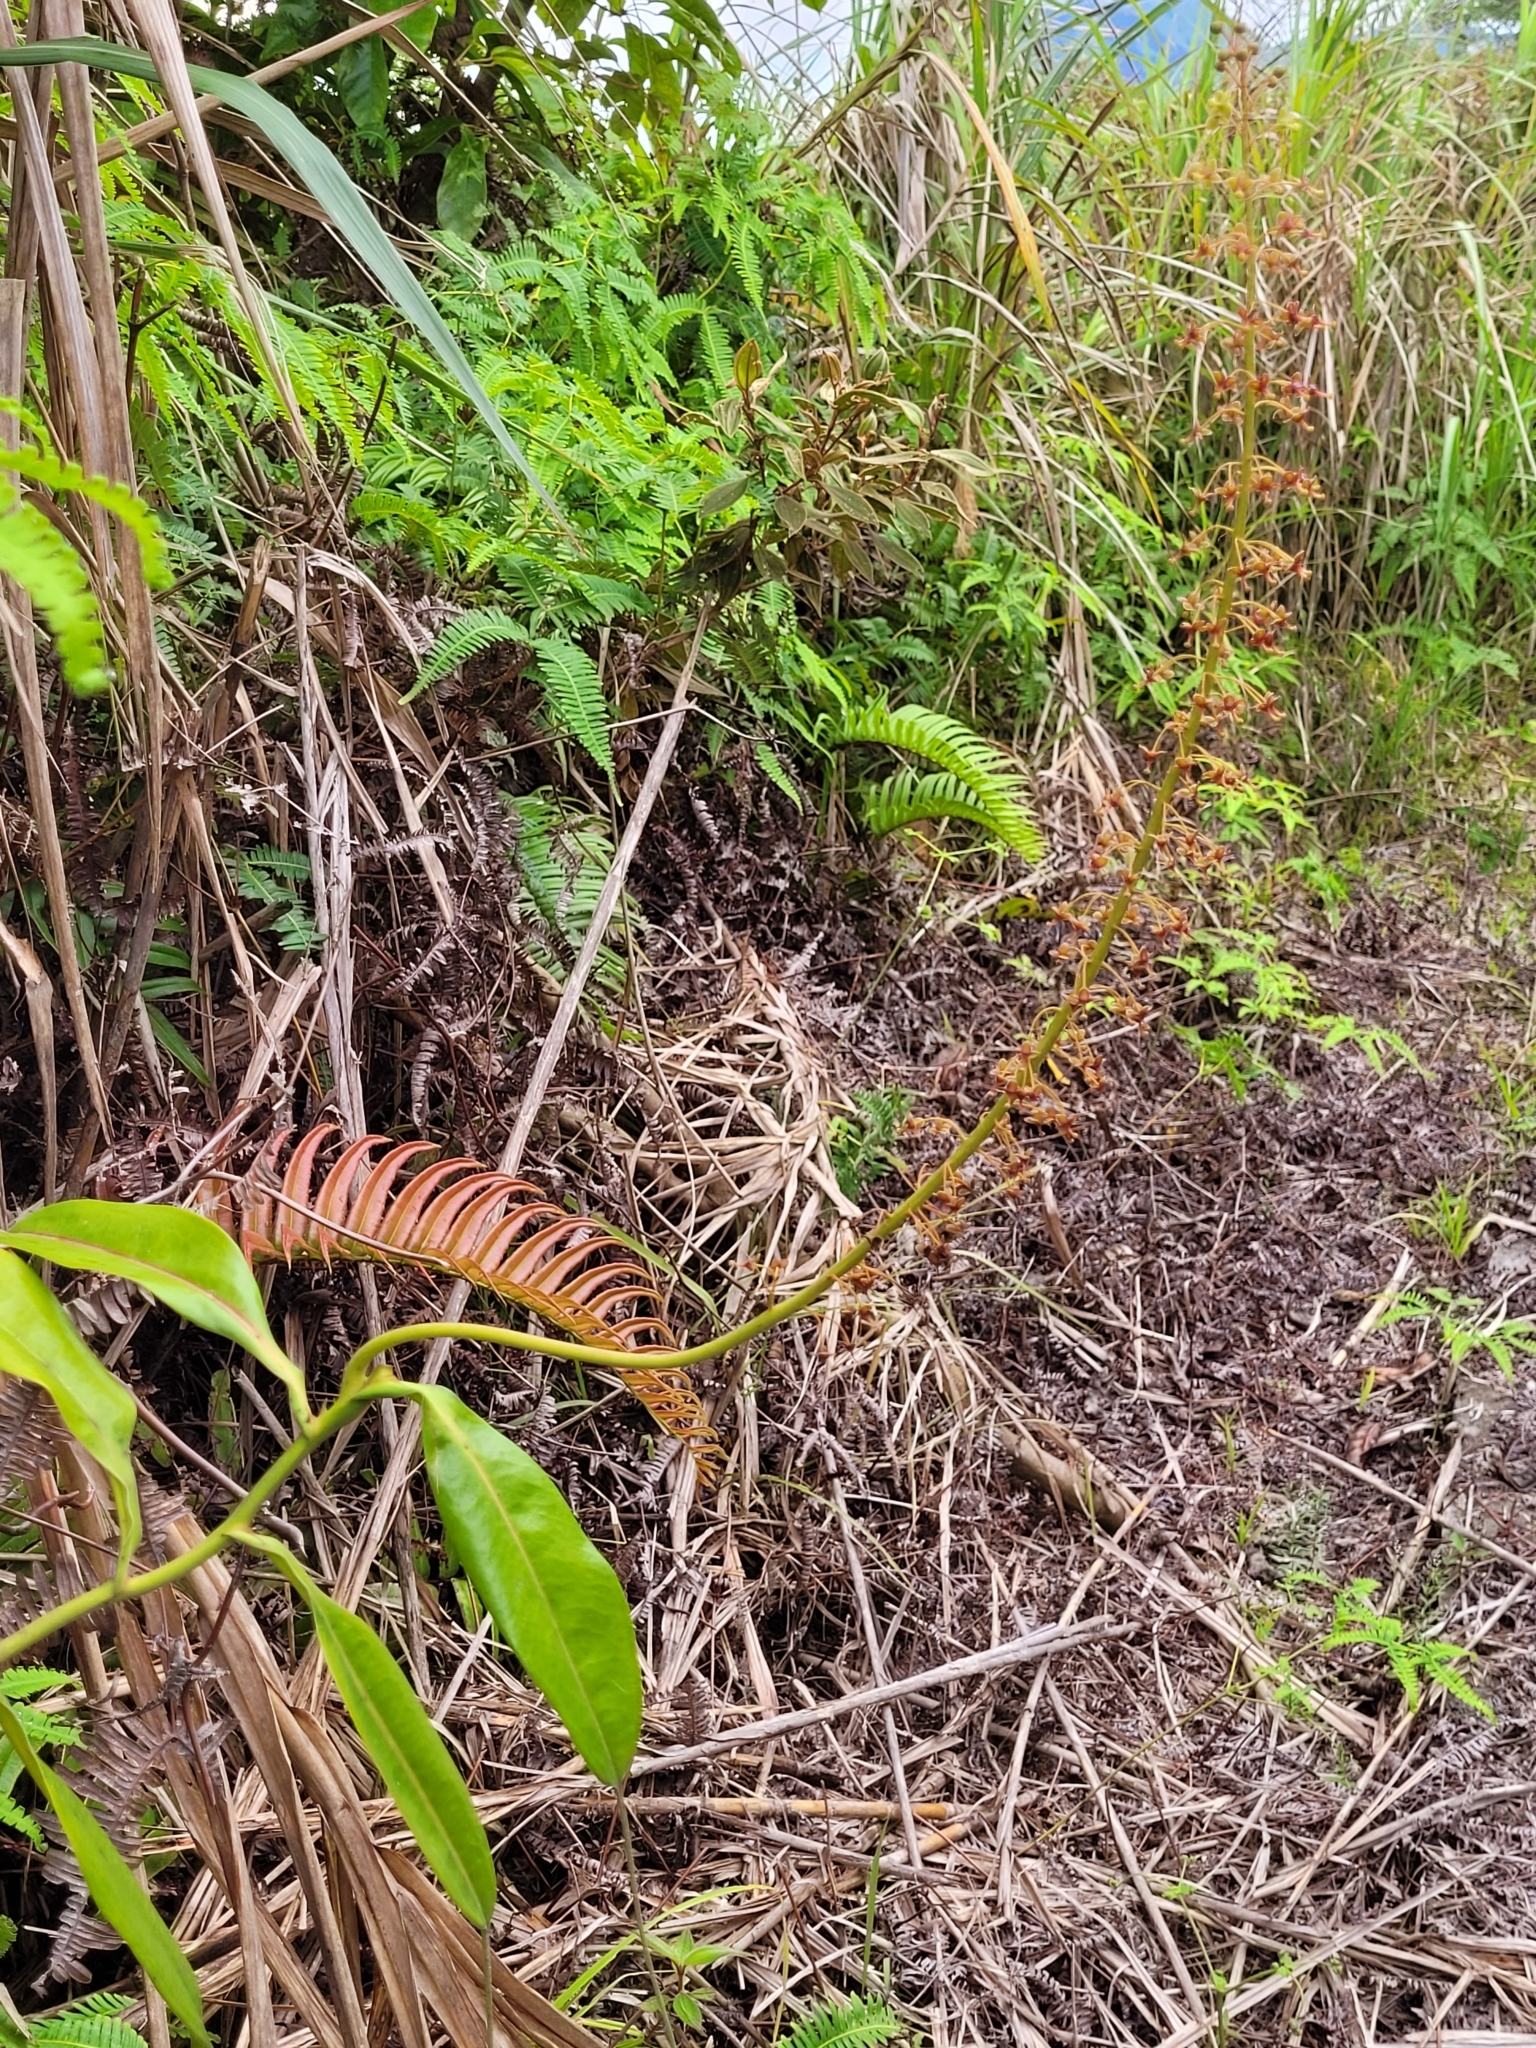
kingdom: Plantae
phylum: Tracheophyta
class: Magnoliopsida
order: Caryophyllales
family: Nepenthaceae
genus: Nepenthes
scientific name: Nepenthes maxima
